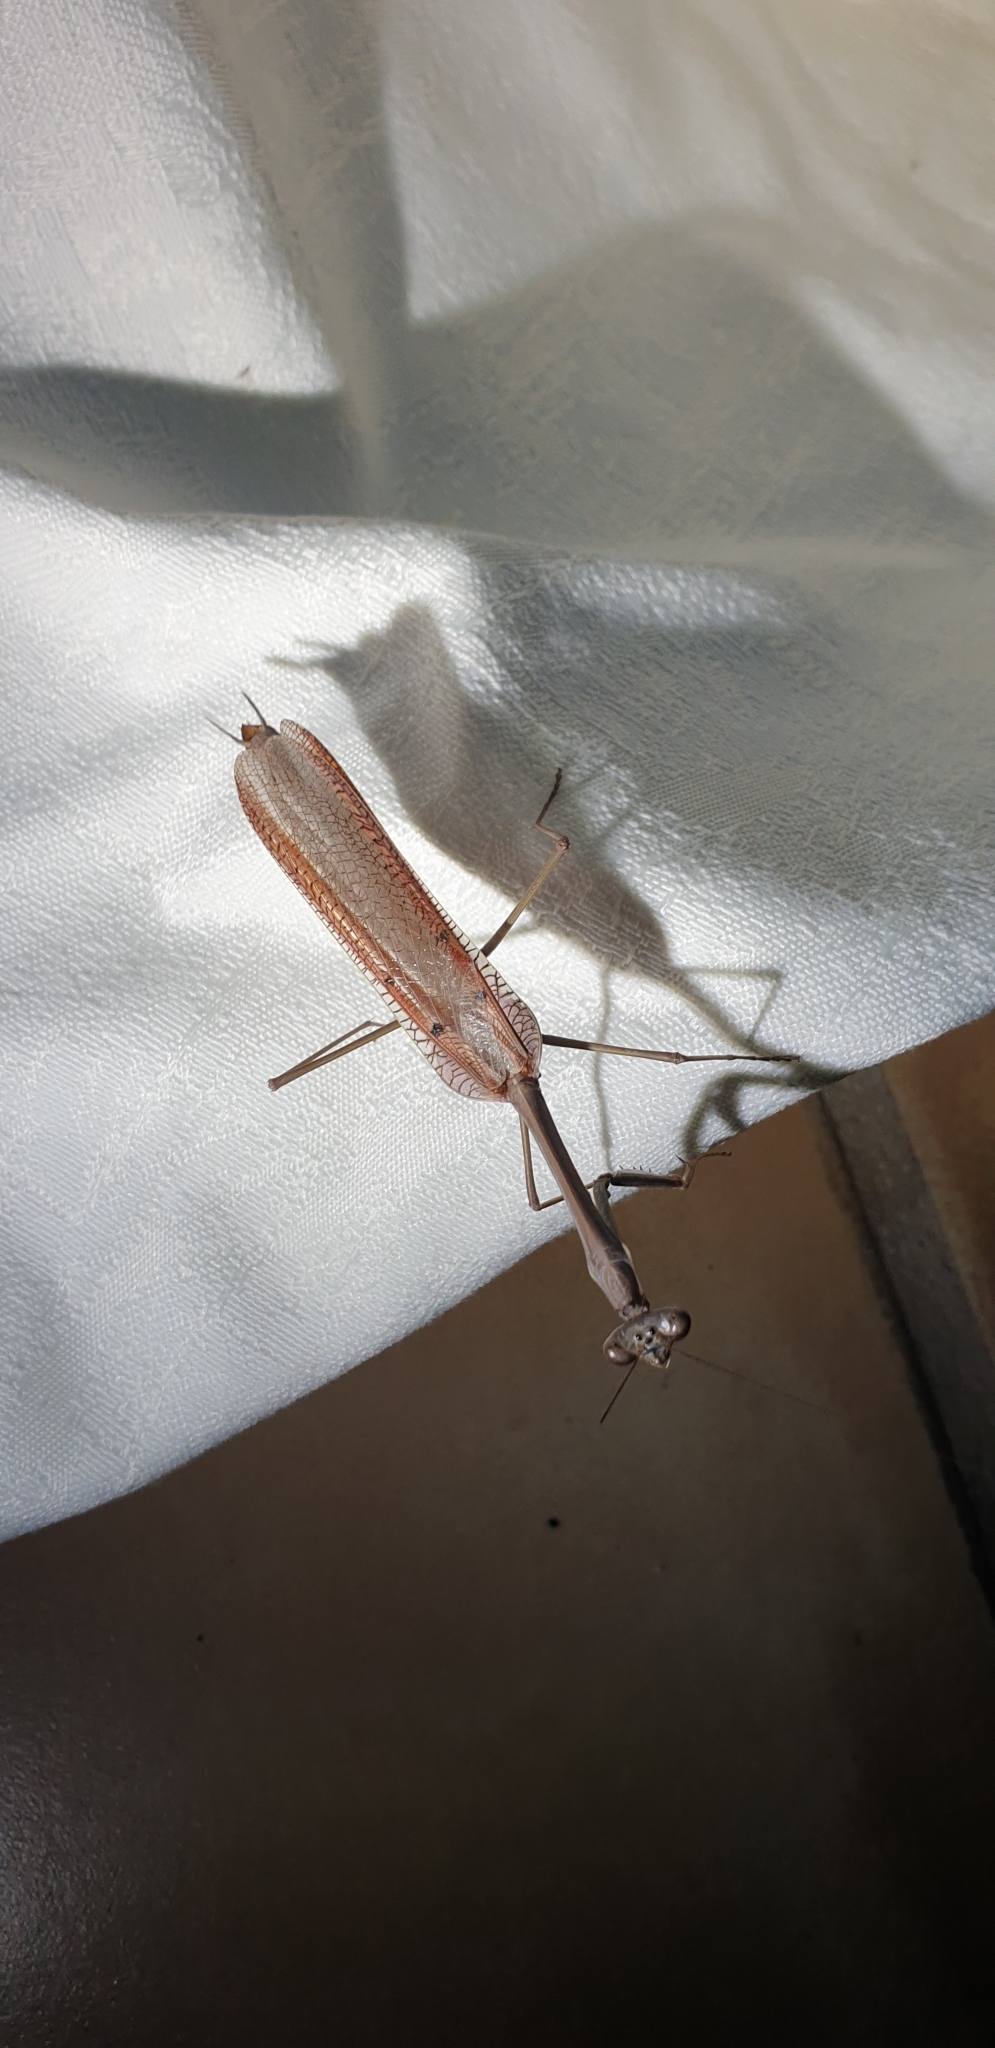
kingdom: Animalia
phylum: Arthropoda
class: Insecta
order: Mantodea
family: Mantidae
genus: Archimantis
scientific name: Archimantis latistyla
